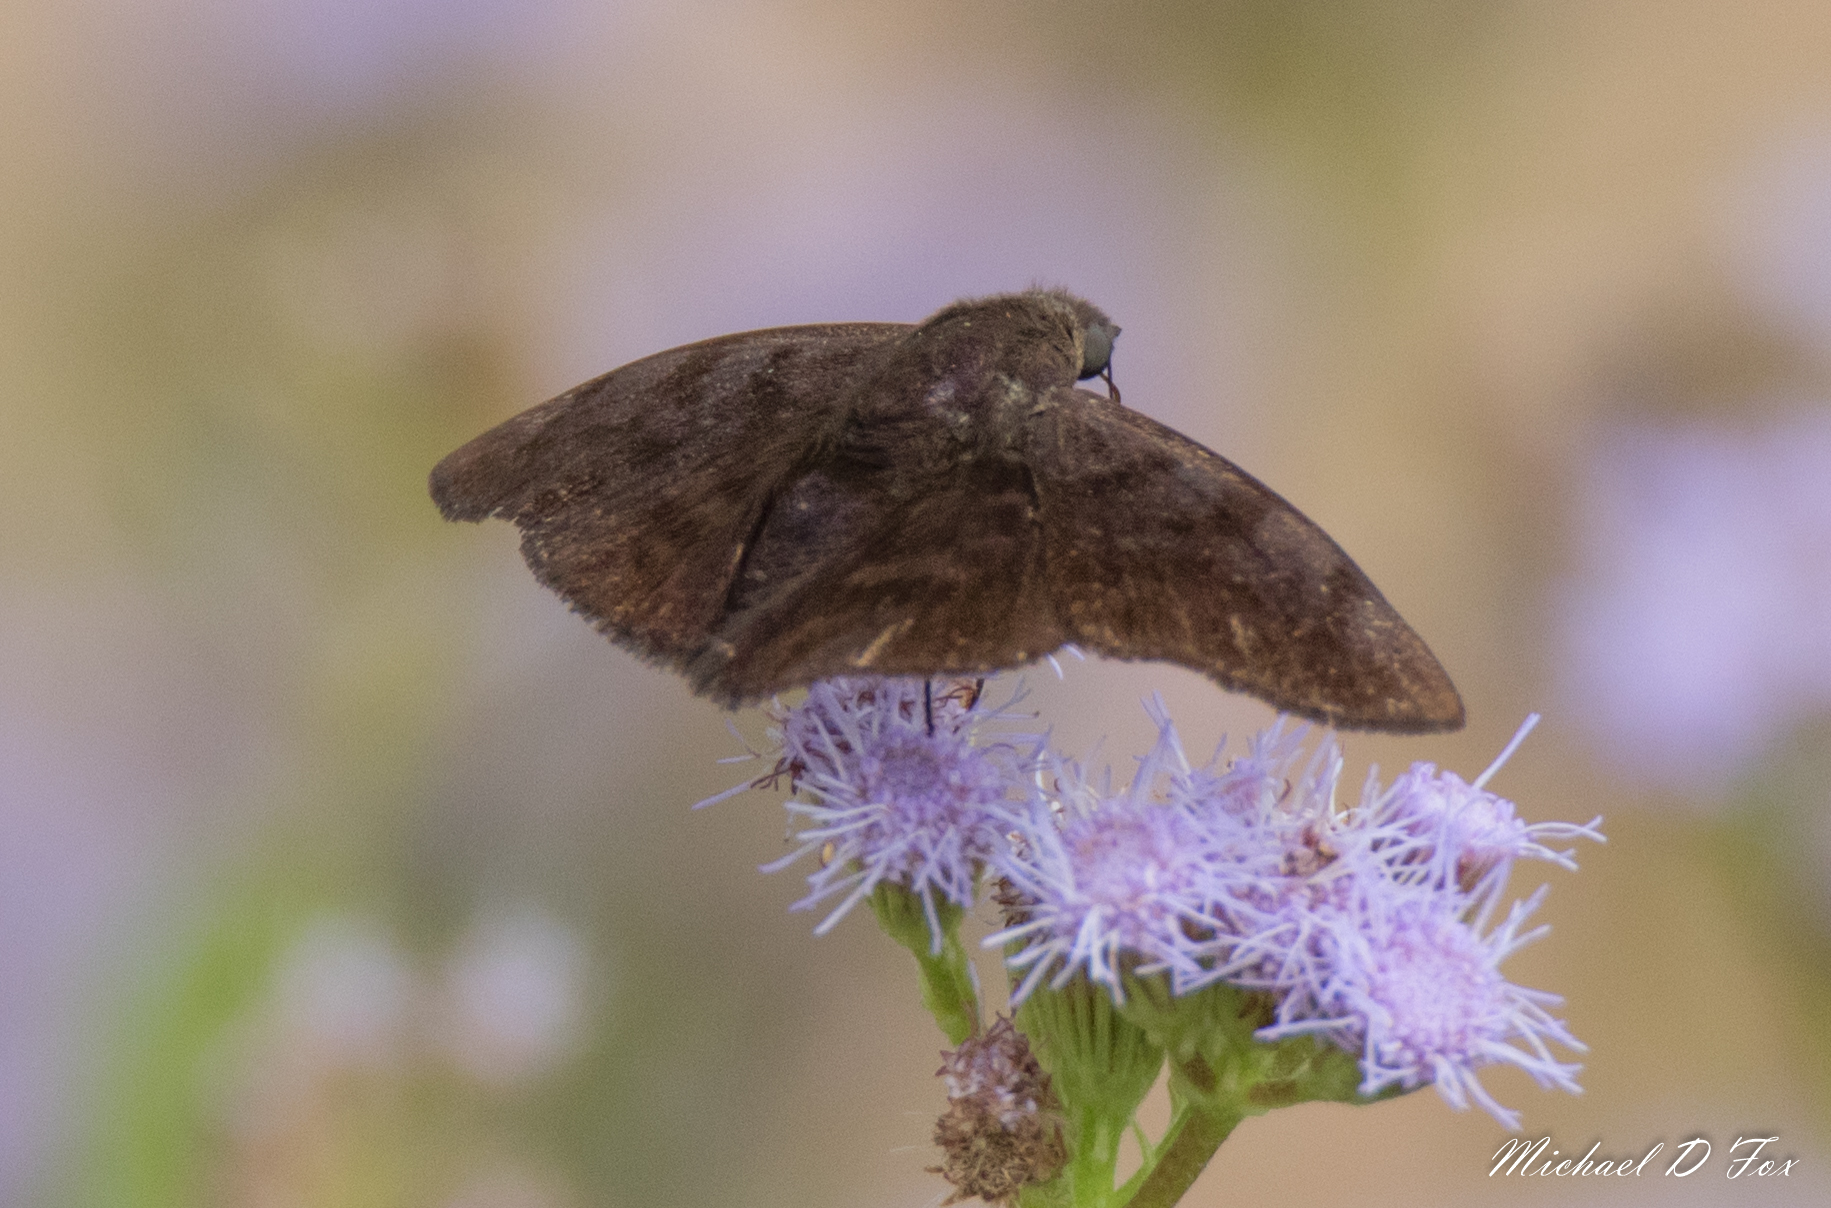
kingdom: Animalia
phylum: Arthropoda
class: Insecta
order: Lepidoptera
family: Hesperiidae
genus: Pellicia
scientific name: Pellicia costimacula
